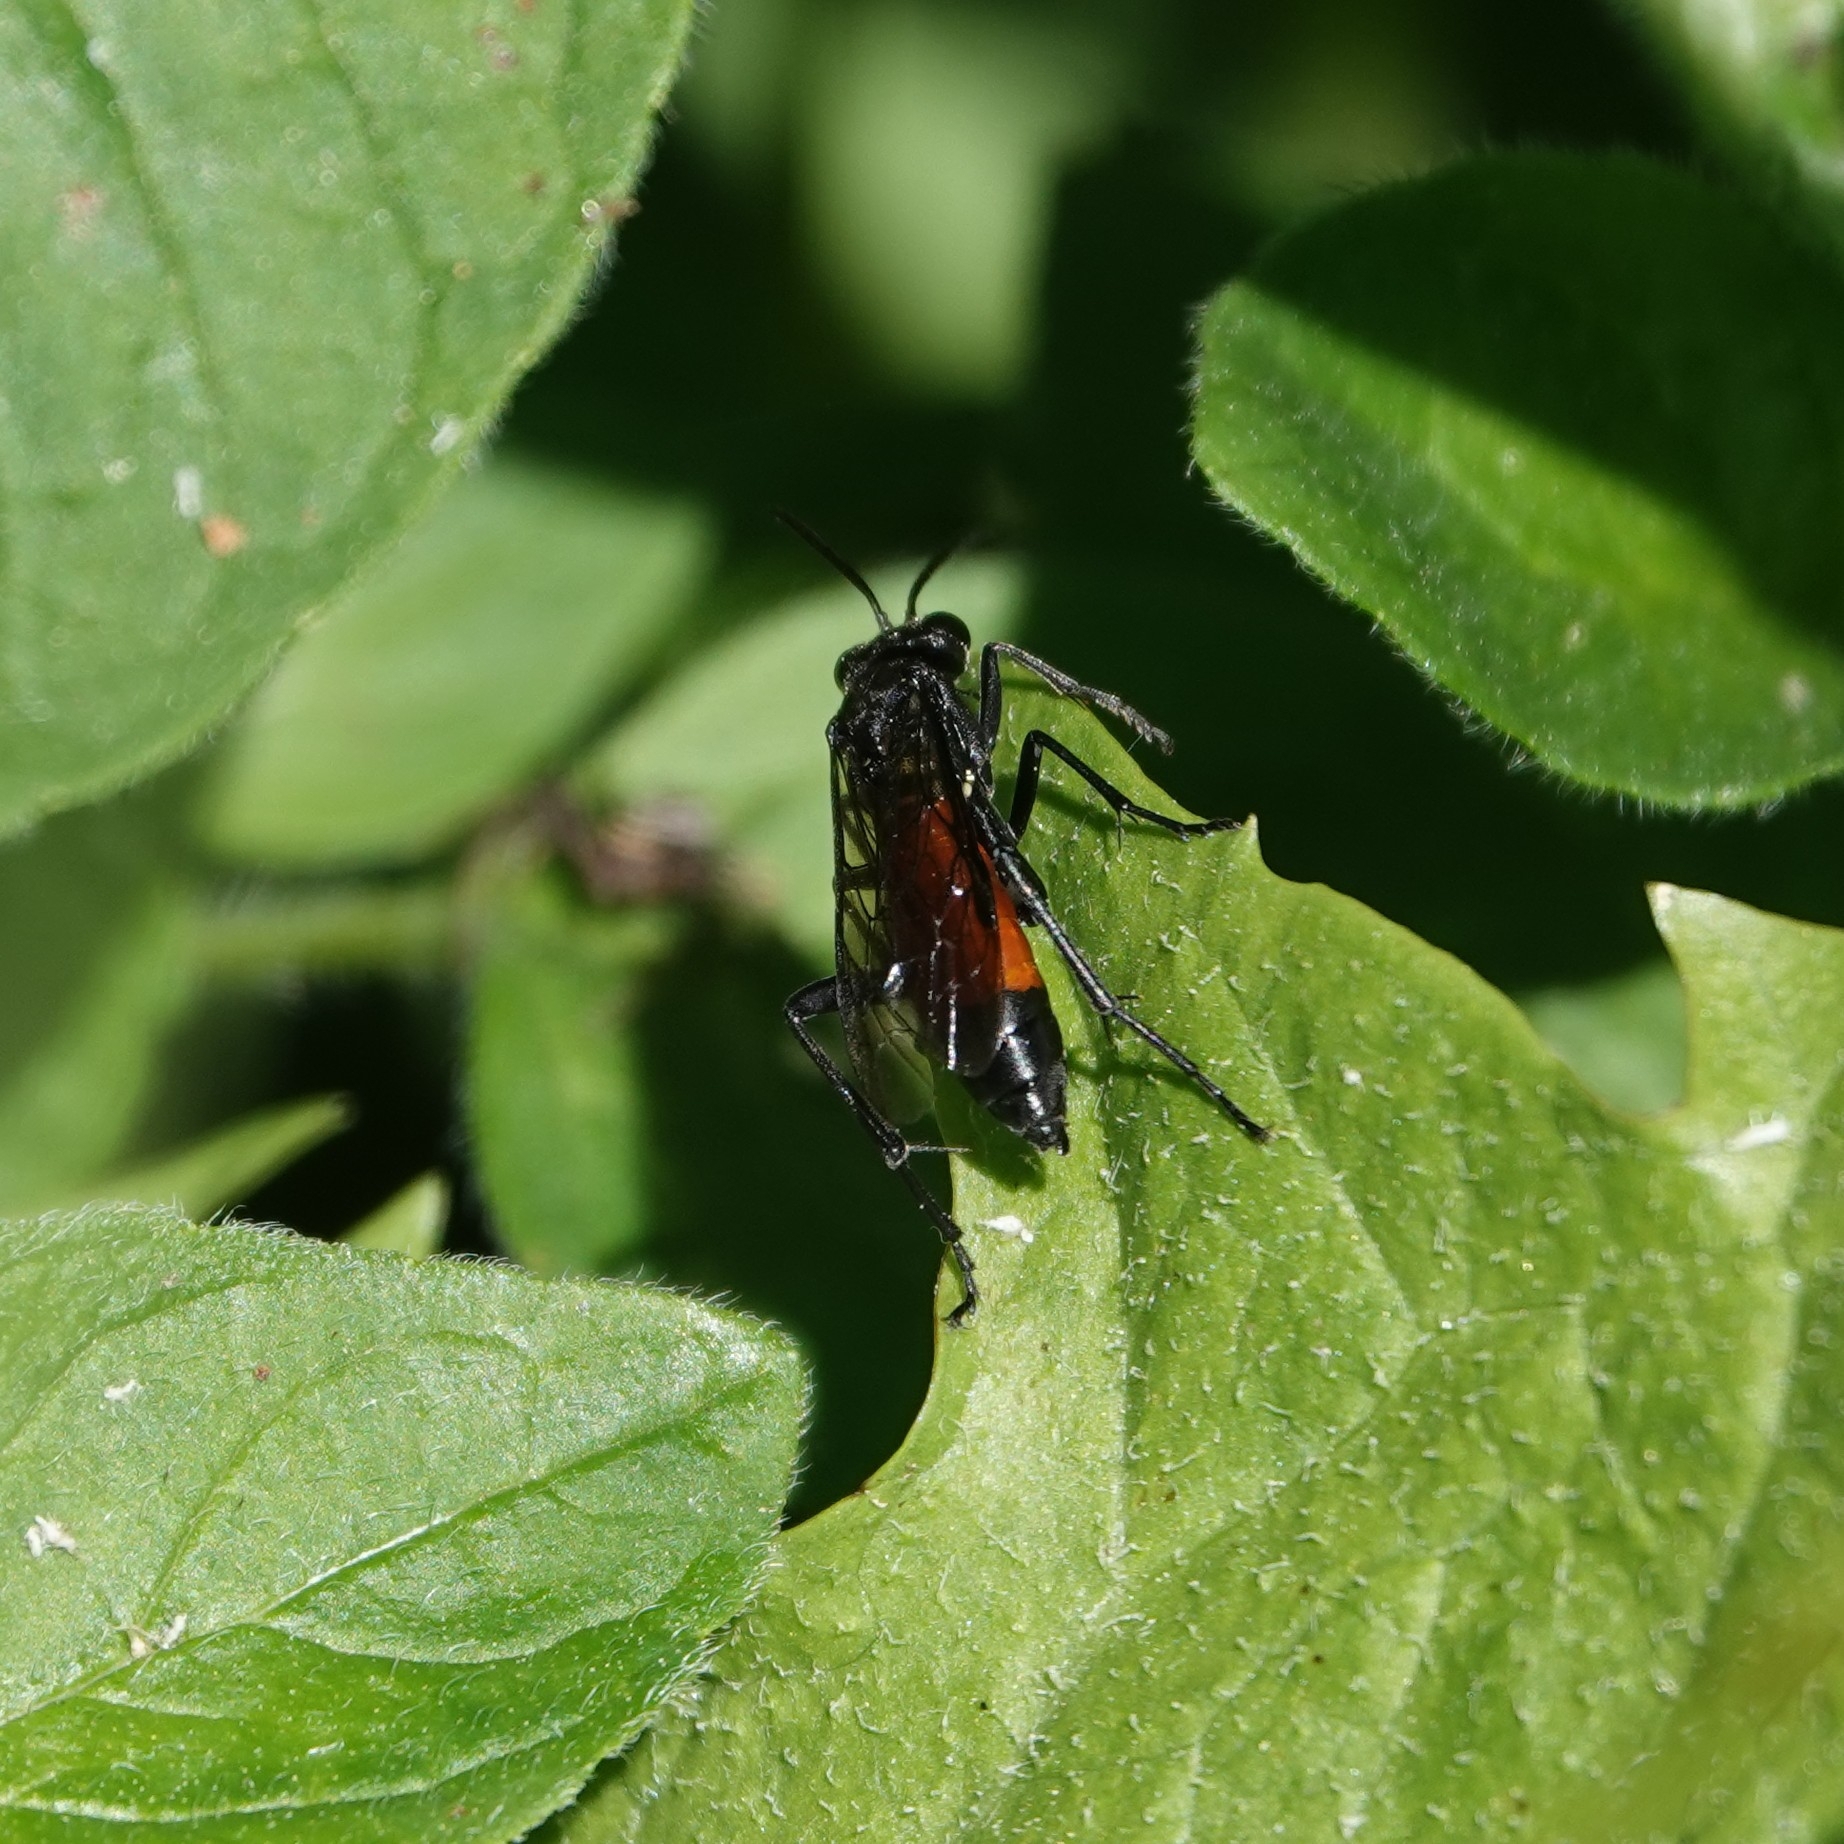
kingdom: Animalia
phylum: Arthropoda
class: Insecta
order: Hymenoptera
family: Tenthredinidae
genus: Macrophya
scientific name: Macrophya annulata
